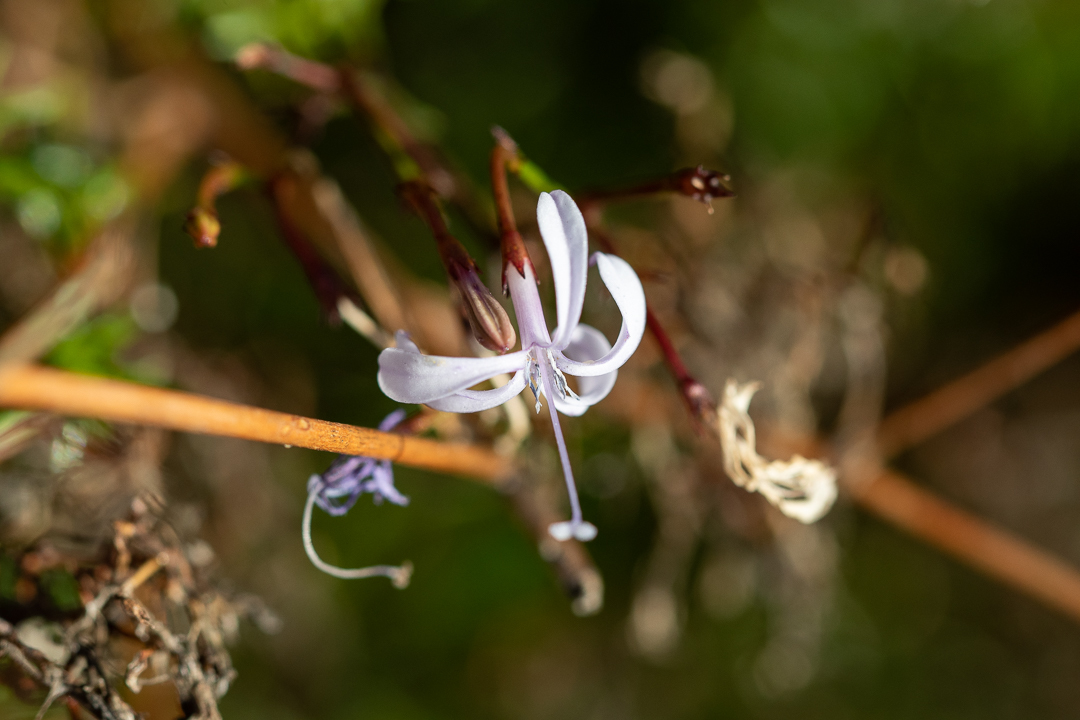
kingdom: Plantae
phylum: Tracheophyta
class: Magnoliopsida
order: Asterales
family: Campanulaceae
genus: Prismatocarpus
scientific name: Prismatocarpus diffusus
